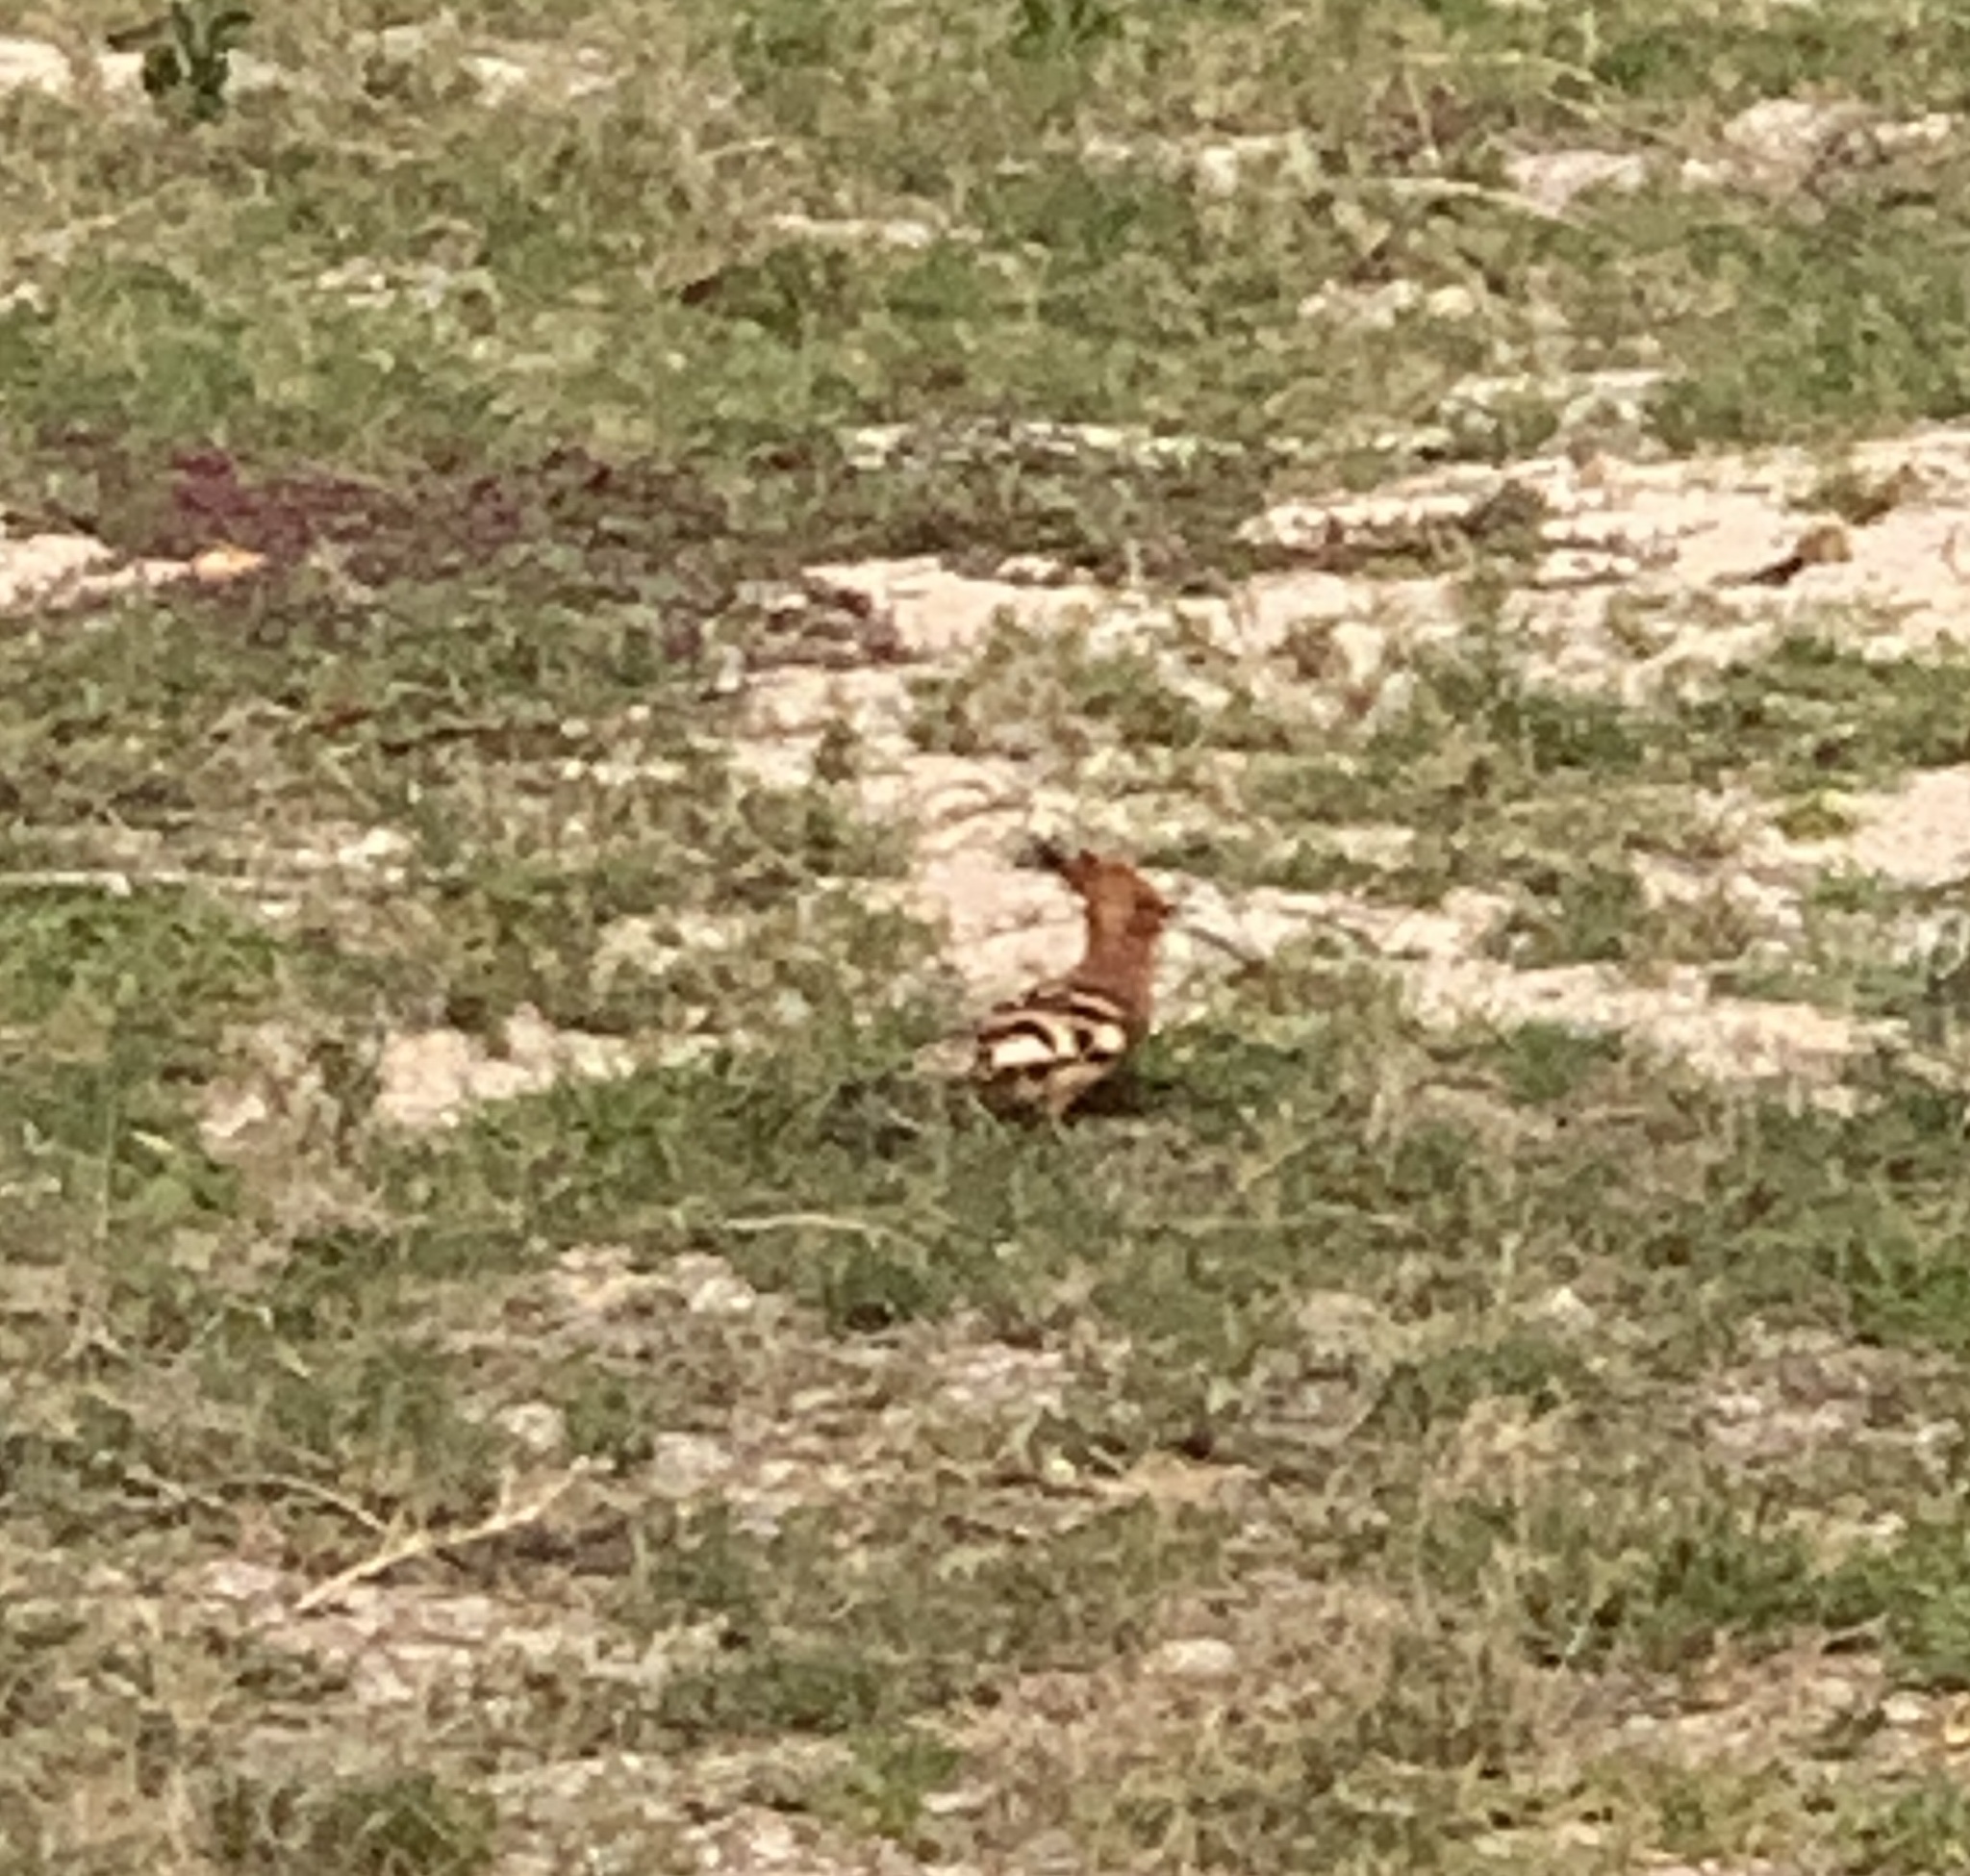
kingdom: Animalia
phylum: Chordata
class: Aves
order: Bucerotiformes
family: Upupidae
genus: Upupa
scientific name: Upupa africana
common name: African hoopoe
